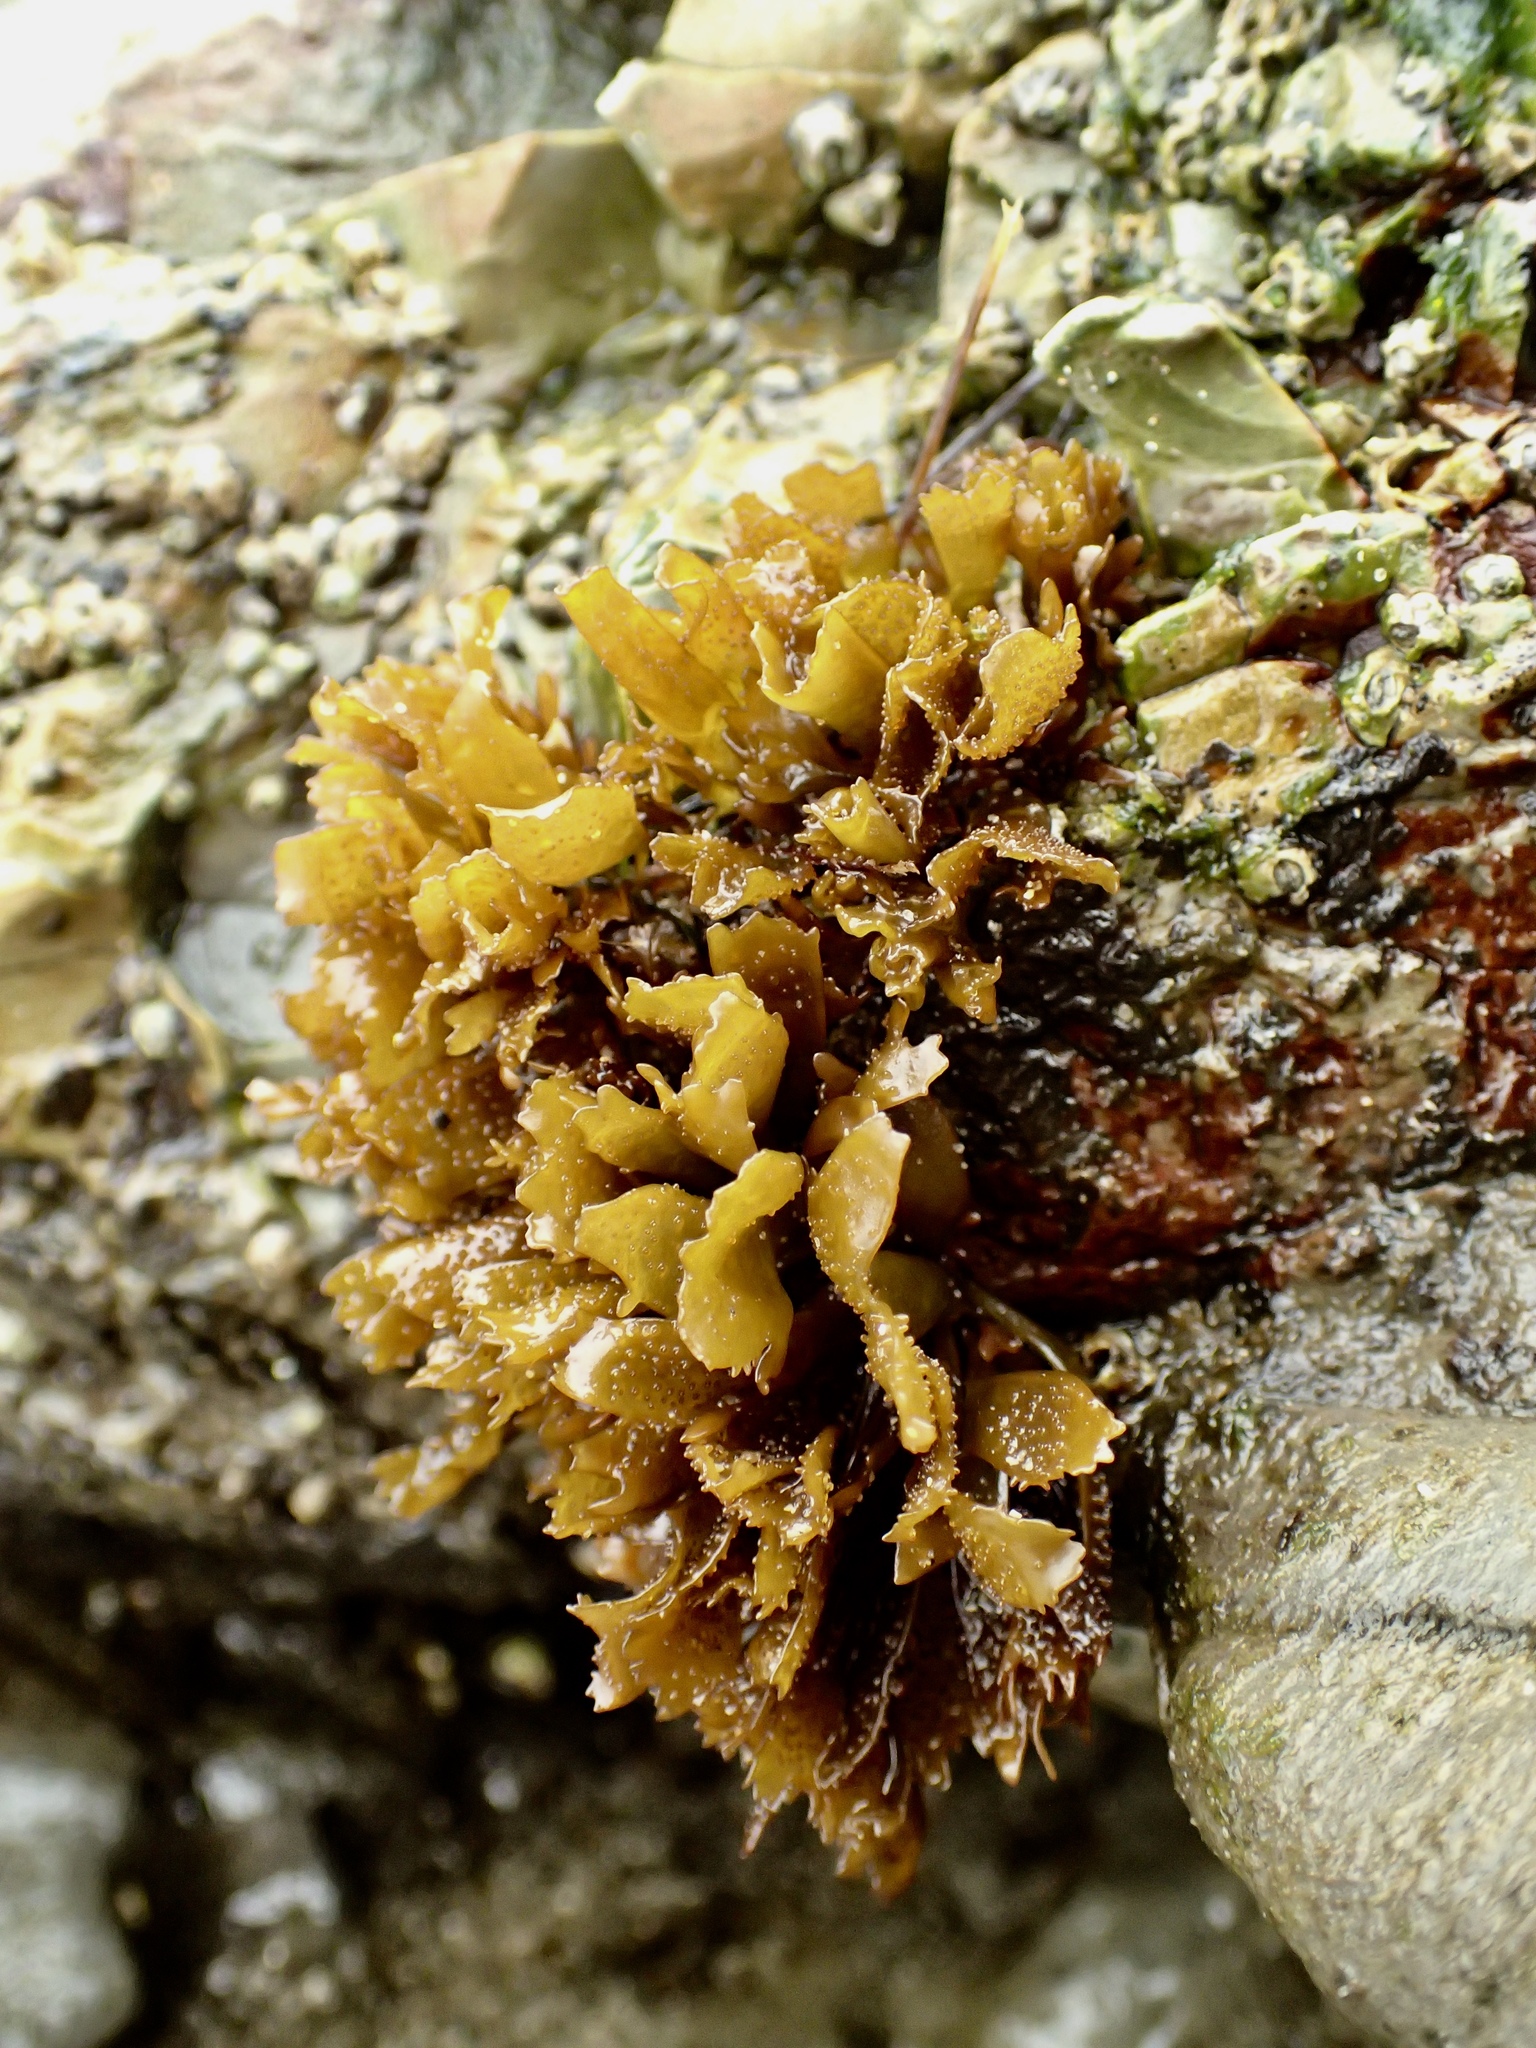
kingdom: Plantae
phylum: Rhodophyta
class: Florideophyceae
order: Gigartinales
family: Phyllophoraceae
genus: Mastocarpus
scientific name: Mastocarpus papillatus
